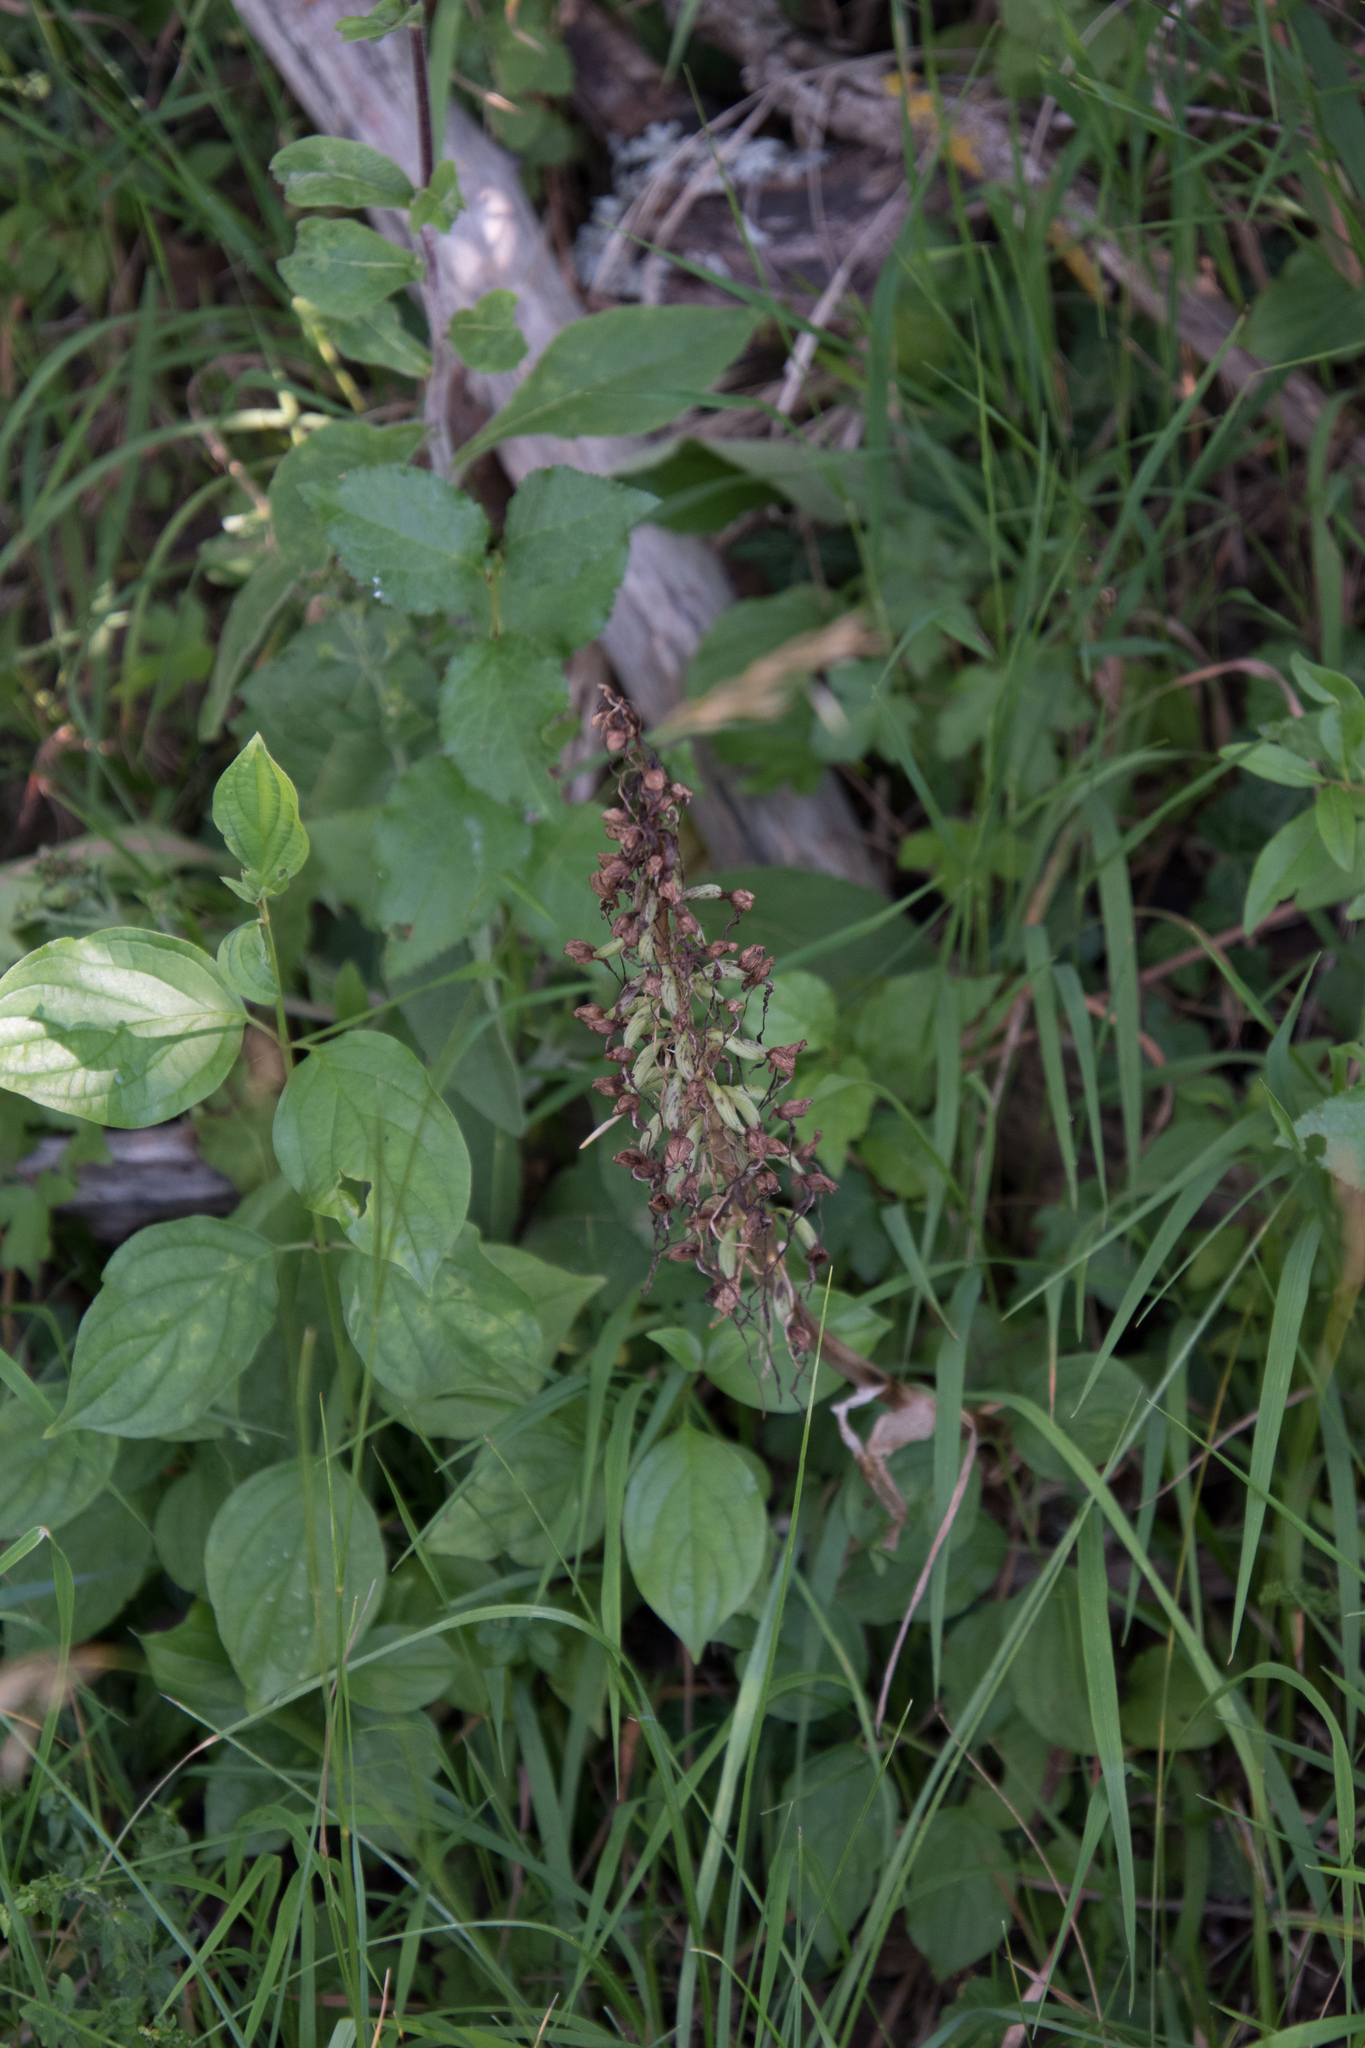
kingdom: Plantae
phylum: Tracheophyta
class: Liliopsida
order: Asparagales
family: Orchidaceae
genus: Himantoglossum
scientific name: Himantoglossum hircinum
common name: Lizard orchid
